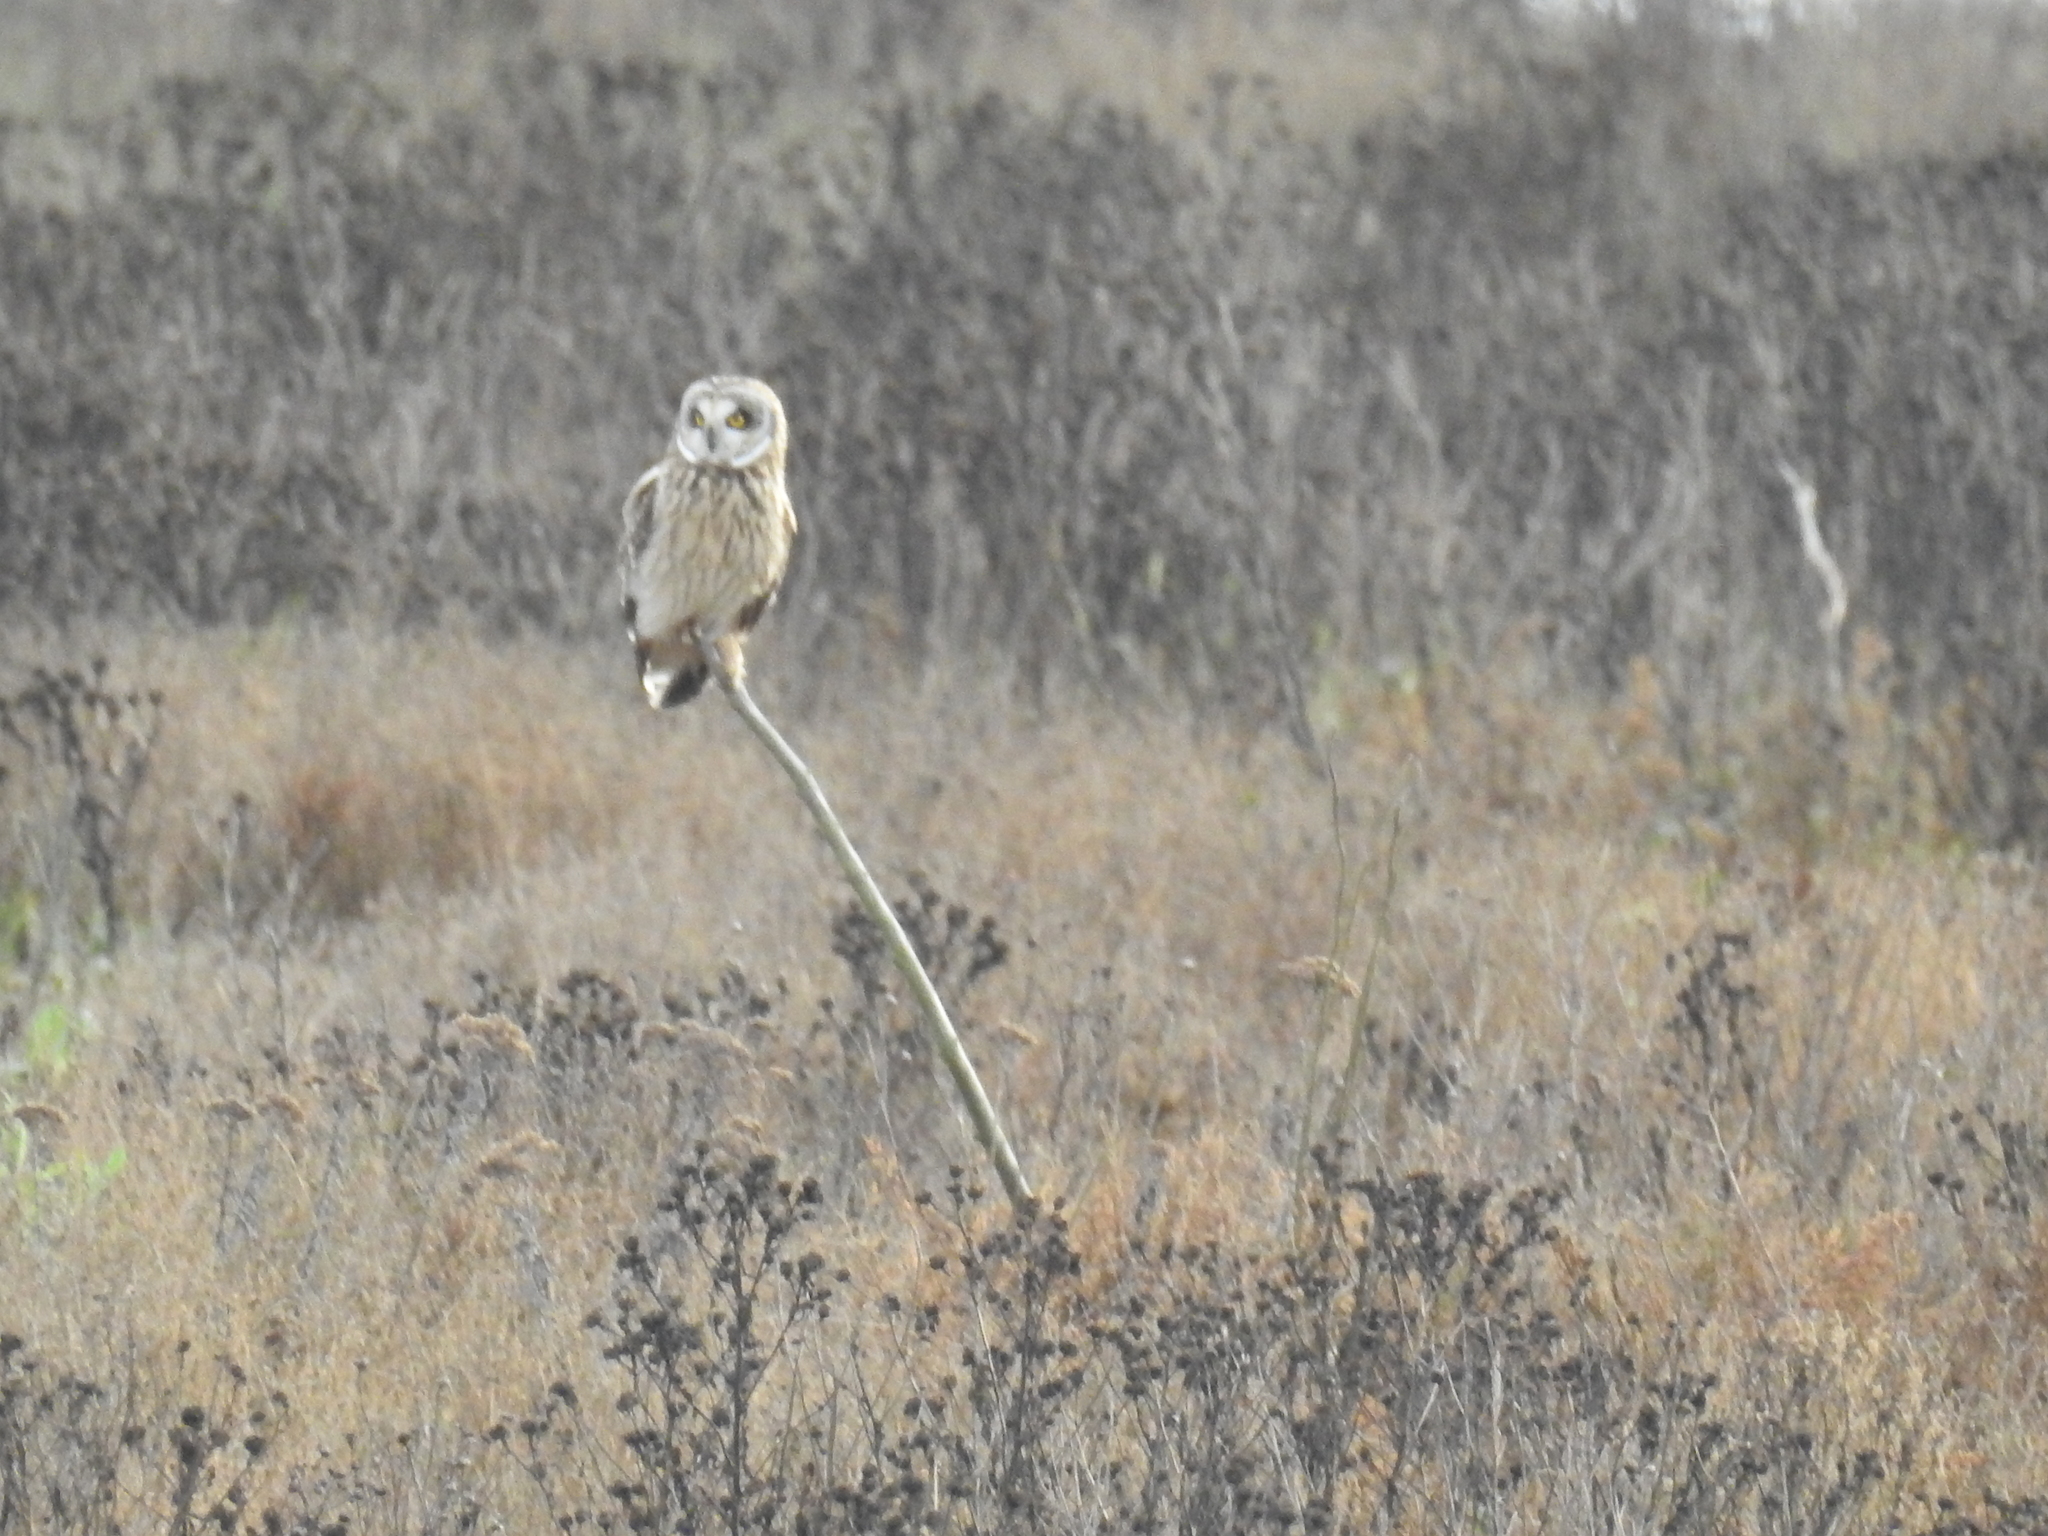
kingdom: Animalia
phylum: Chordata
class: Aves
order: Strigiformes
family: Strigidae
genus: Asio
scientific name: Asio flammeus
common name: Short-eared owl
